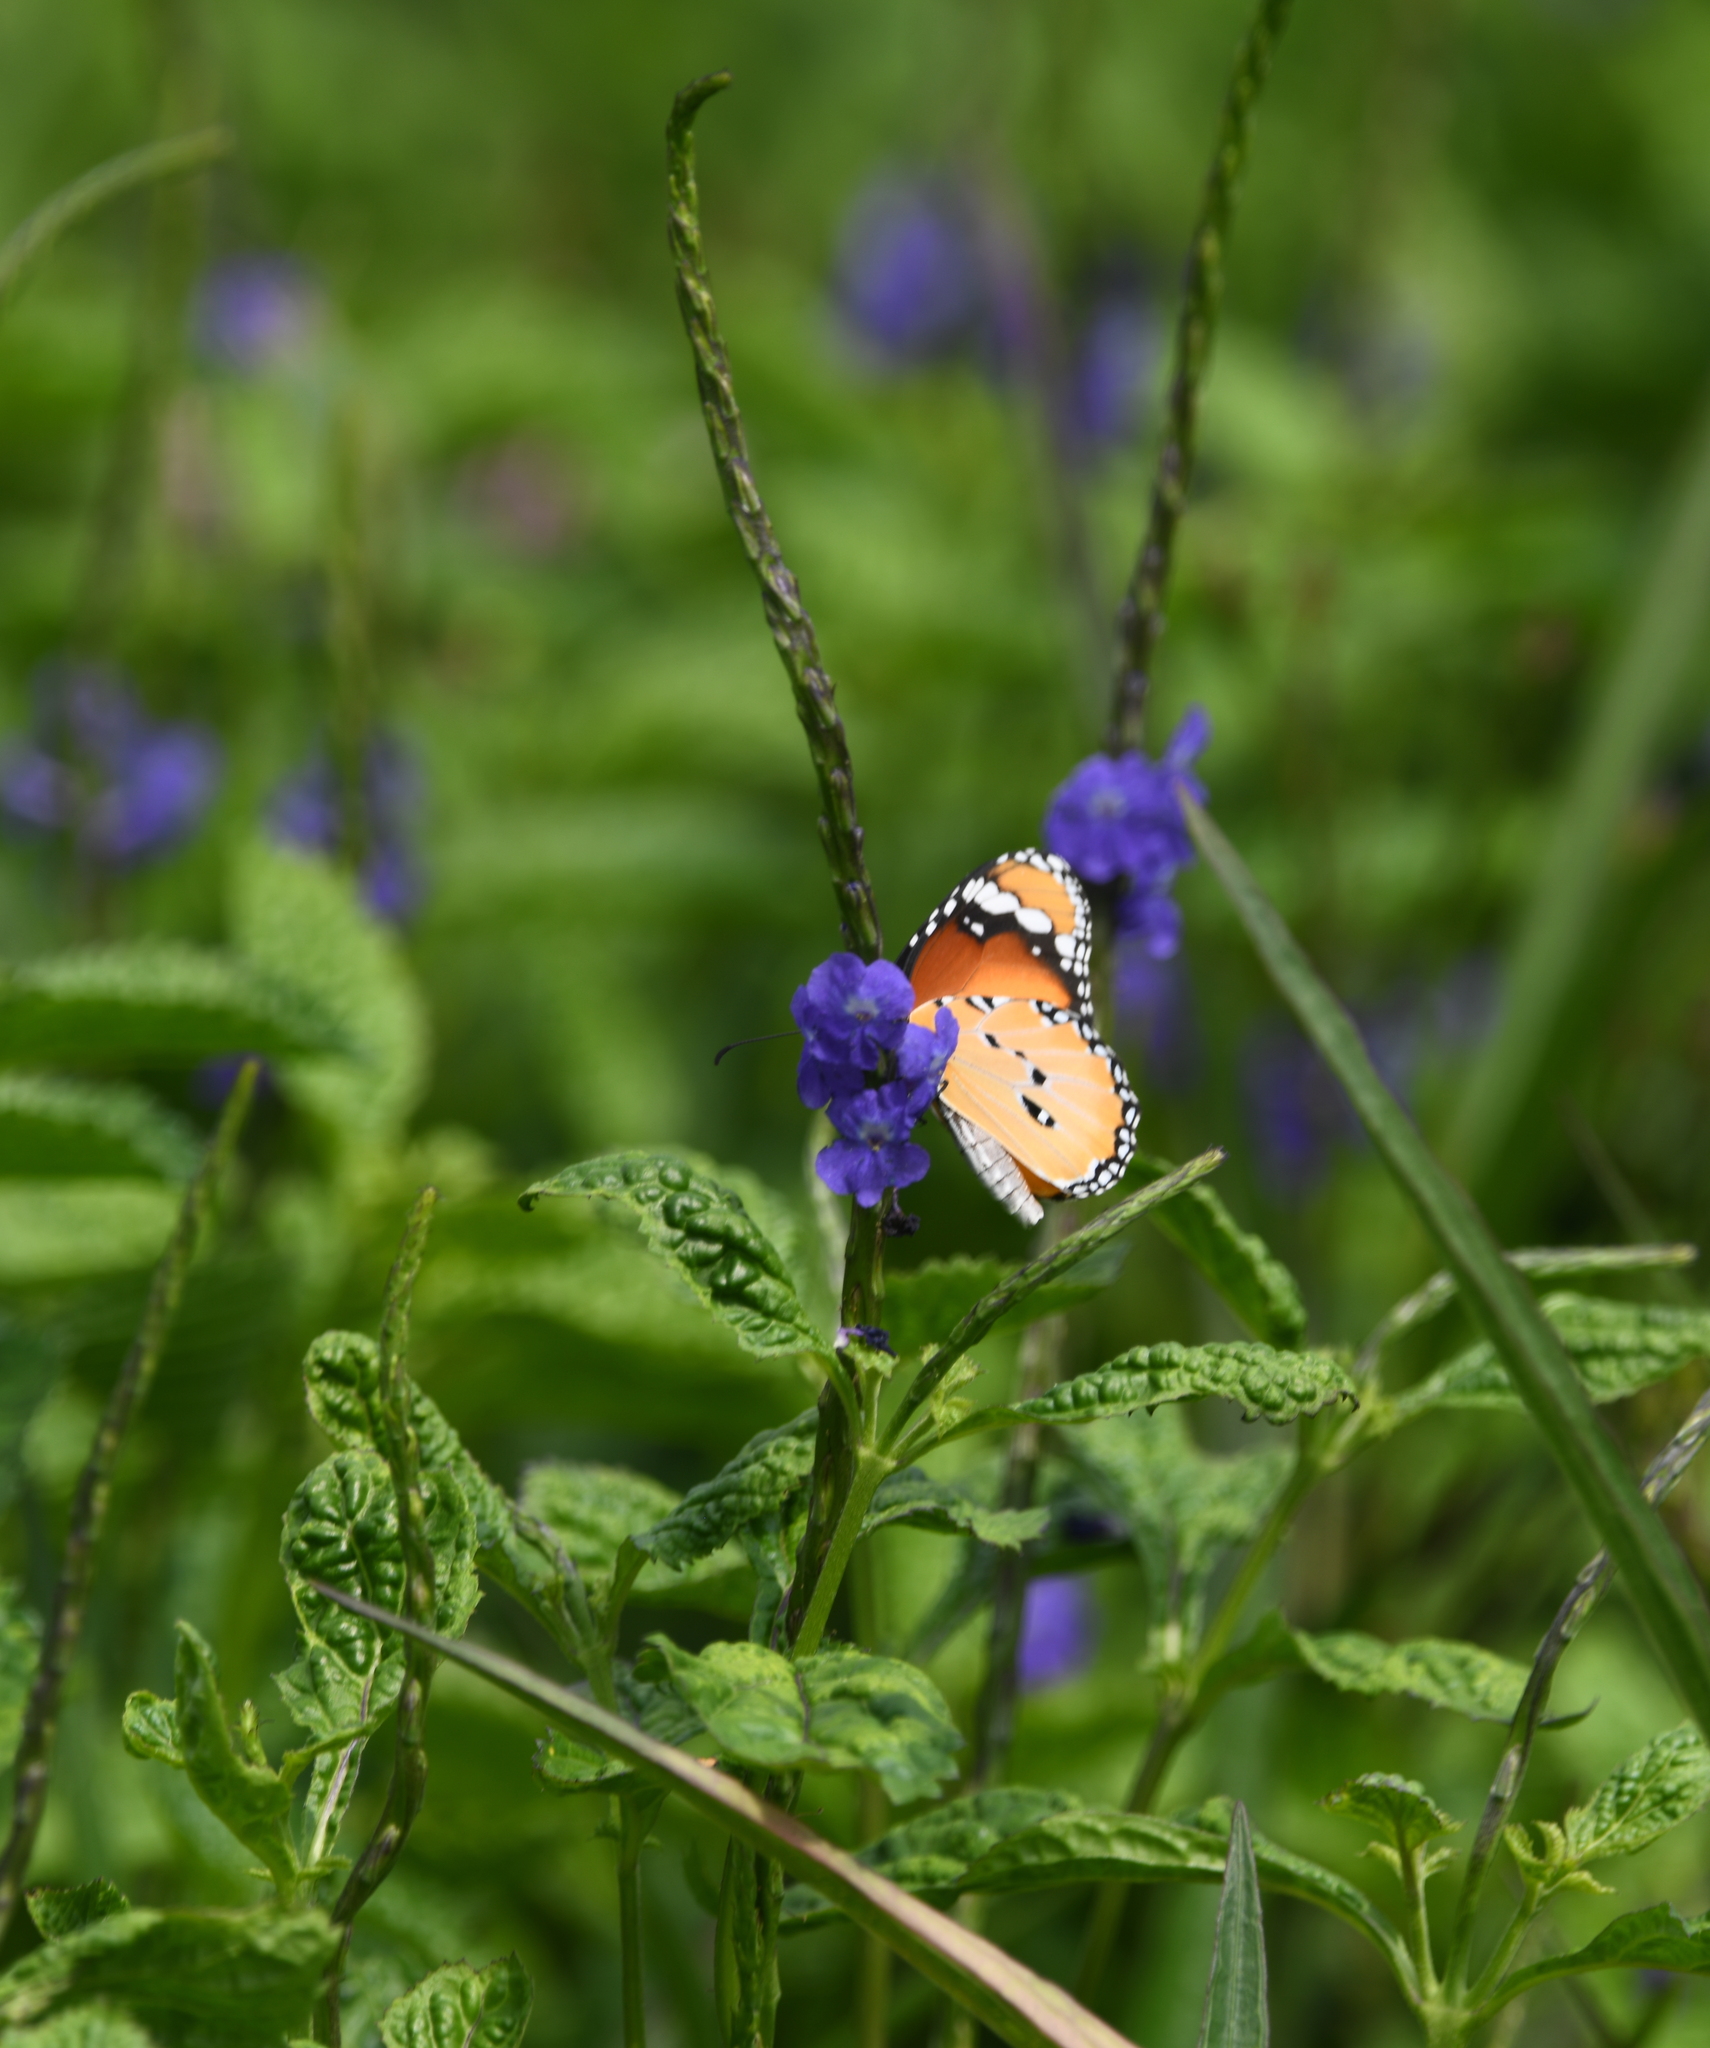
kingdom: Animalia
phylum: Arthropoda
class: Insecta
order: Lepidoptera
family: Nymphalidae
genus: Danaus
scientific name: Danaus chrysippus
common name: Plain tiger
